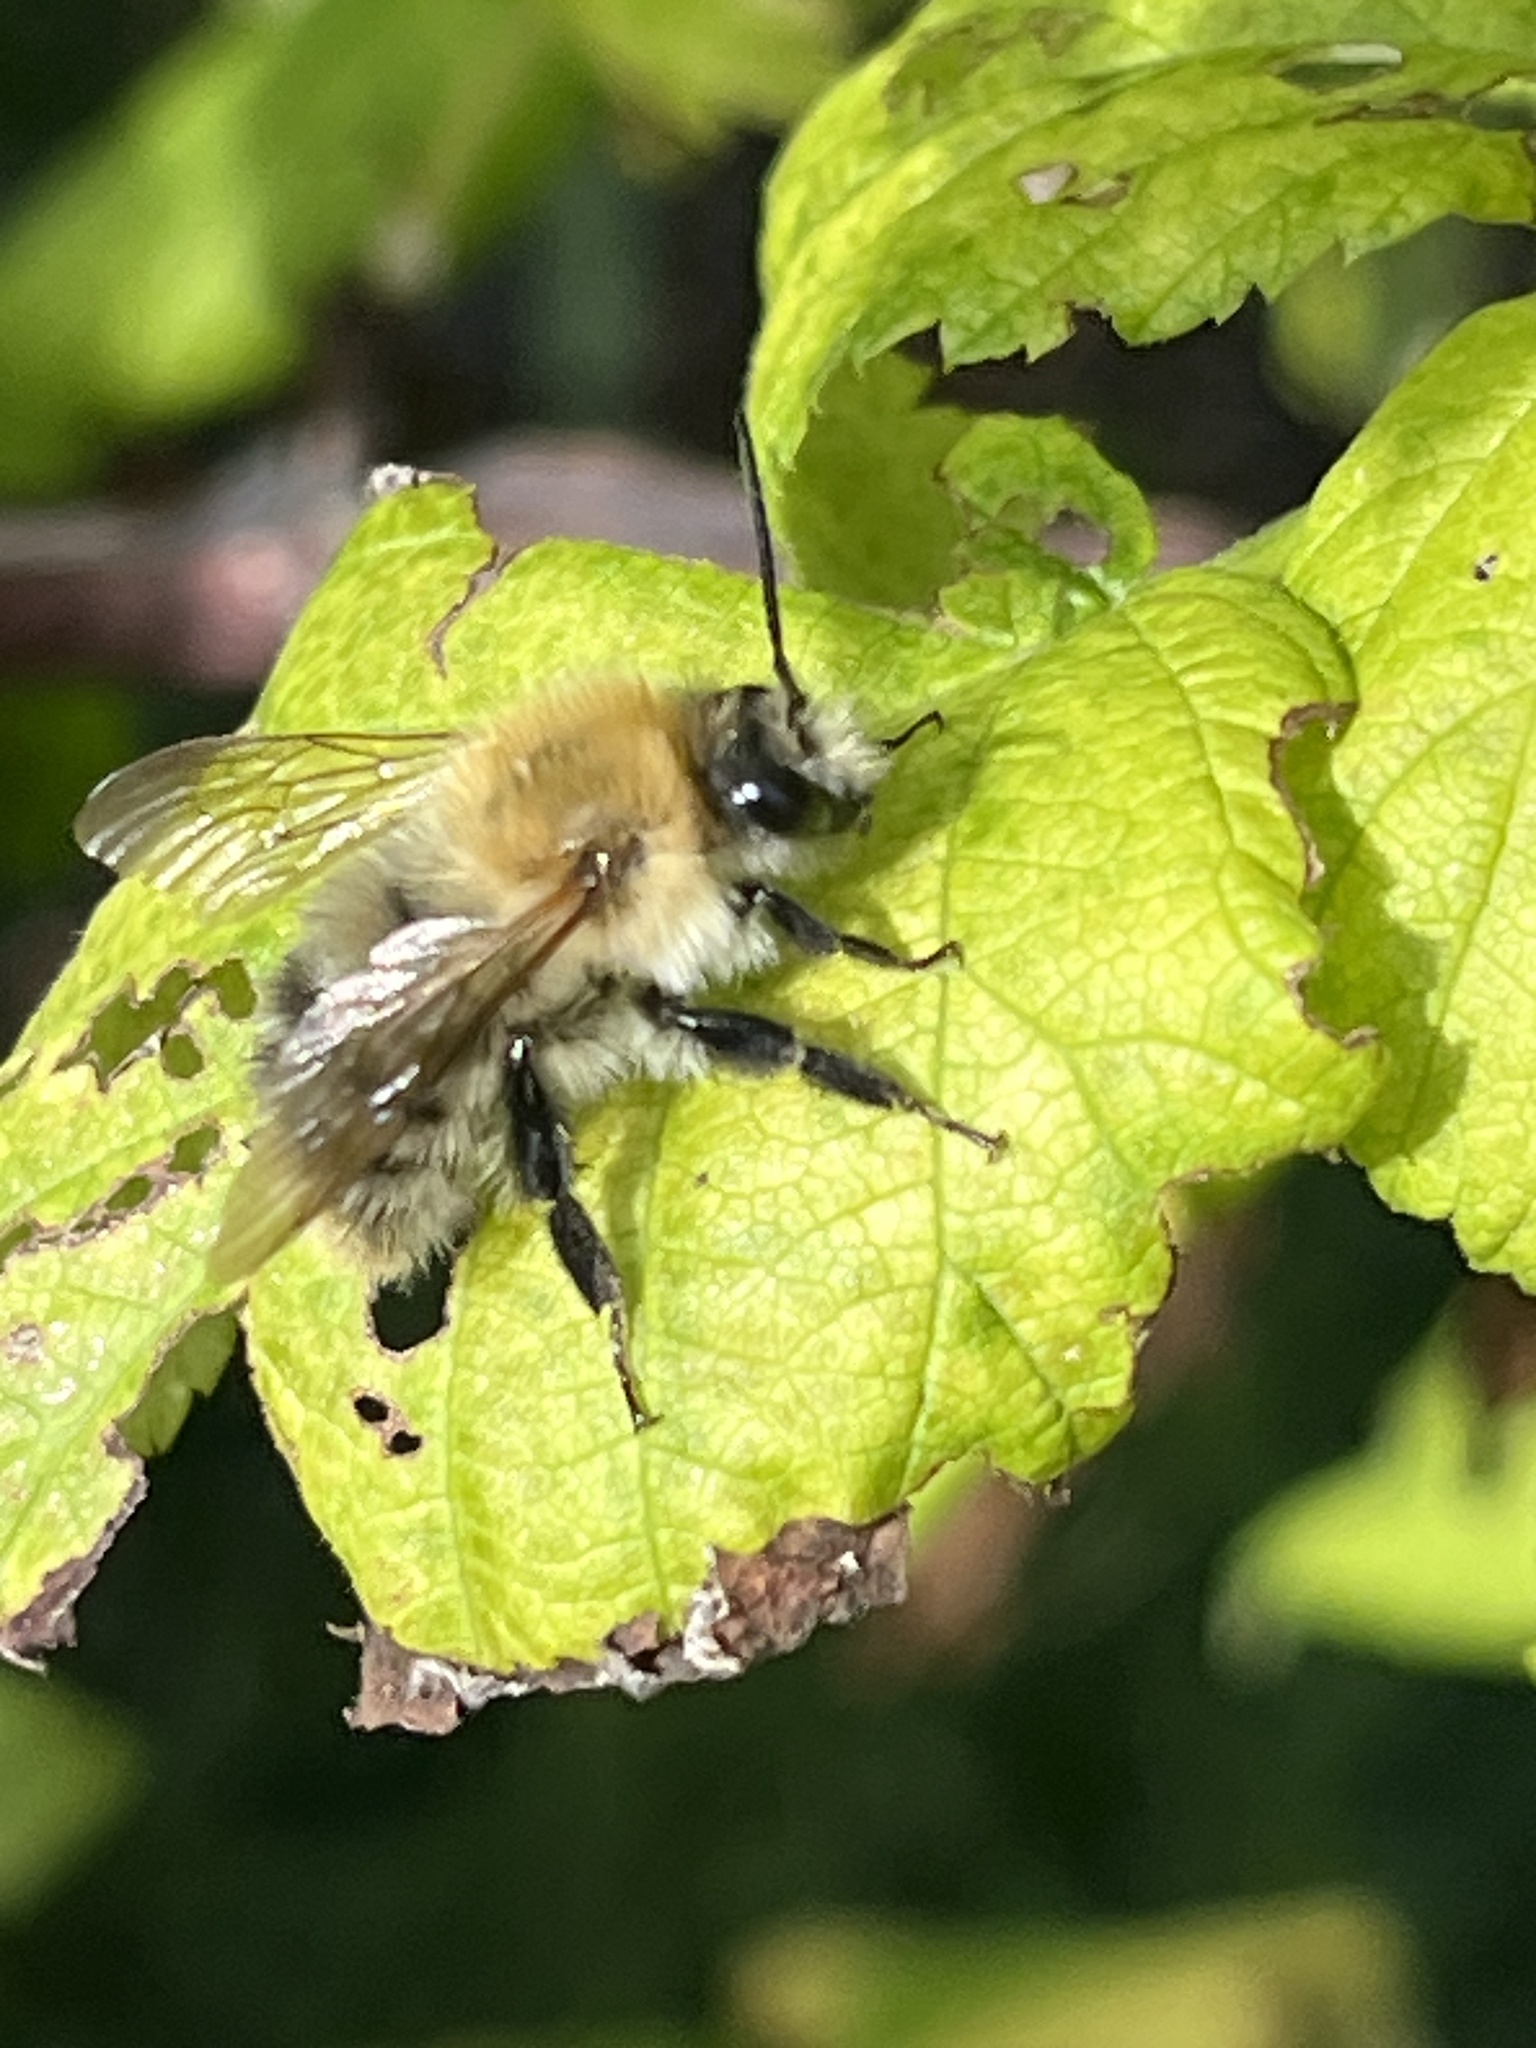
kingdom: Animalia
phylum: Arthropoda
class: Insecta
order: Hymenoptera
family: Apidae
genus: Bombus
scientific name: Bombus pascuorum
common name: Common carder bee
